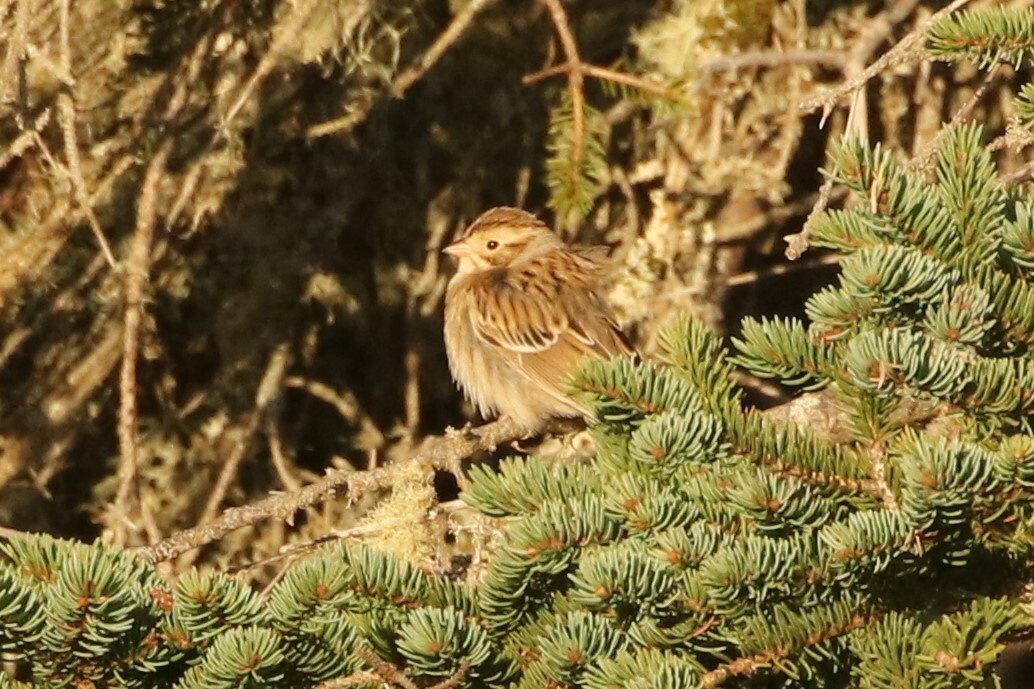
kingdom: Animalia
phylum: Chordata
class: Aves
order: Passeriformes
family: Passerellidae
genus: Spizella
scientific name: Spizella pallida
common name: Clay-colored sparrow
